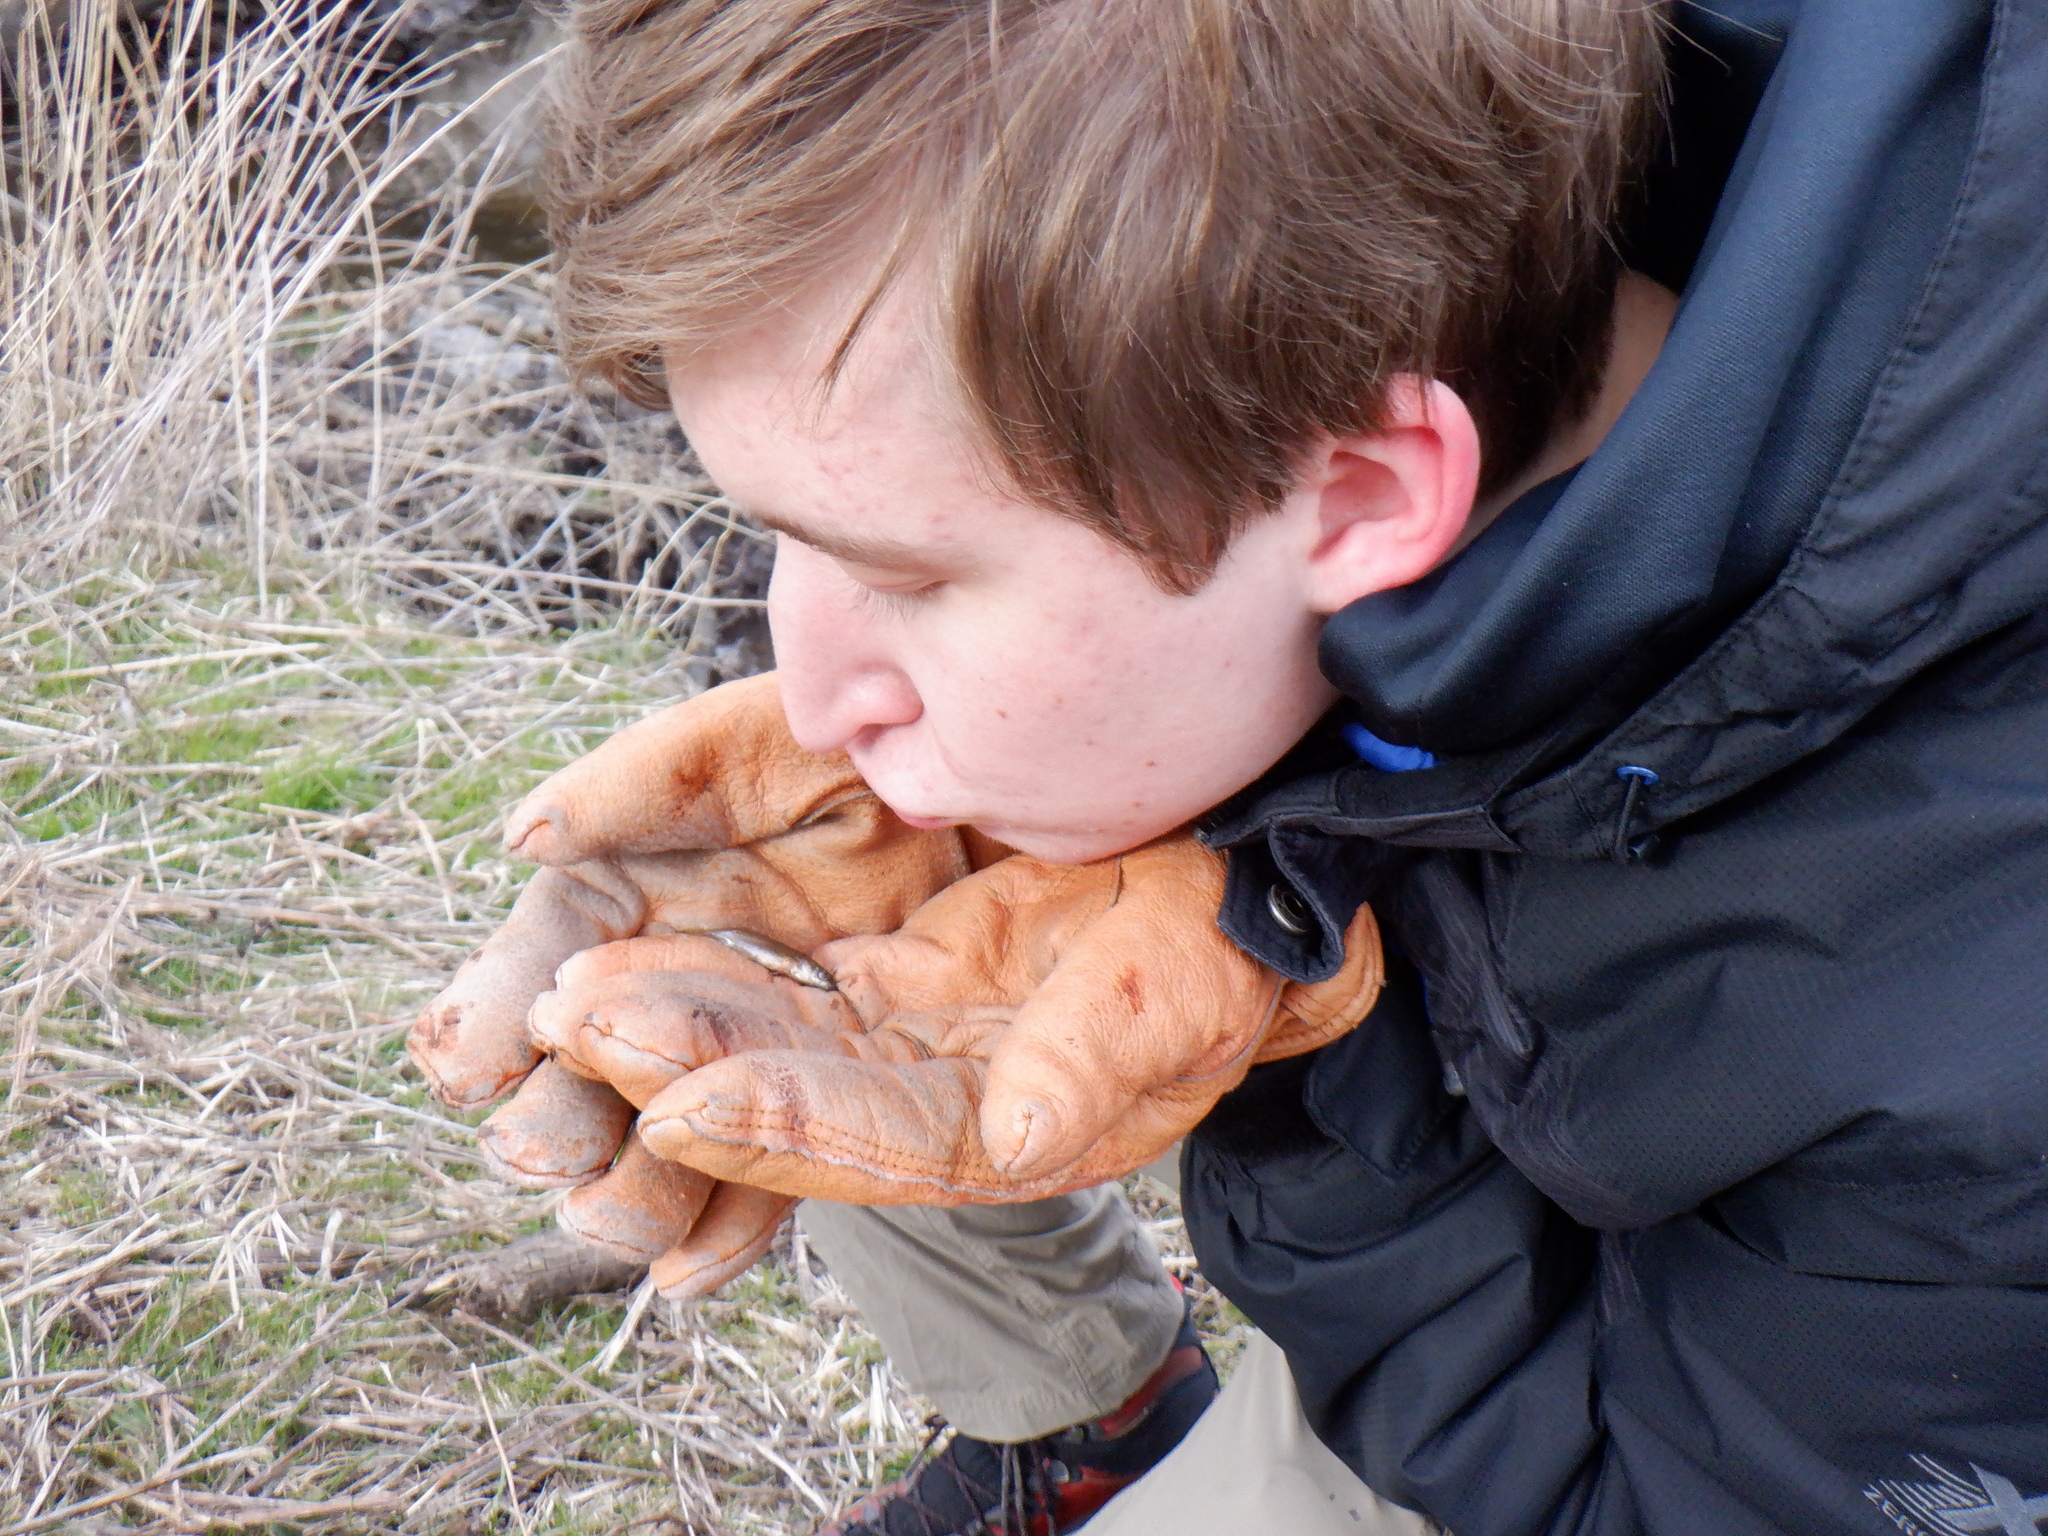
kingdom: Animalia
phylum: Chordata
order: Gasterosteiformes
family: Gasterosteidae
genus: Culaea
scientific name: Culaea inconstans
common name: Brook stickleback
